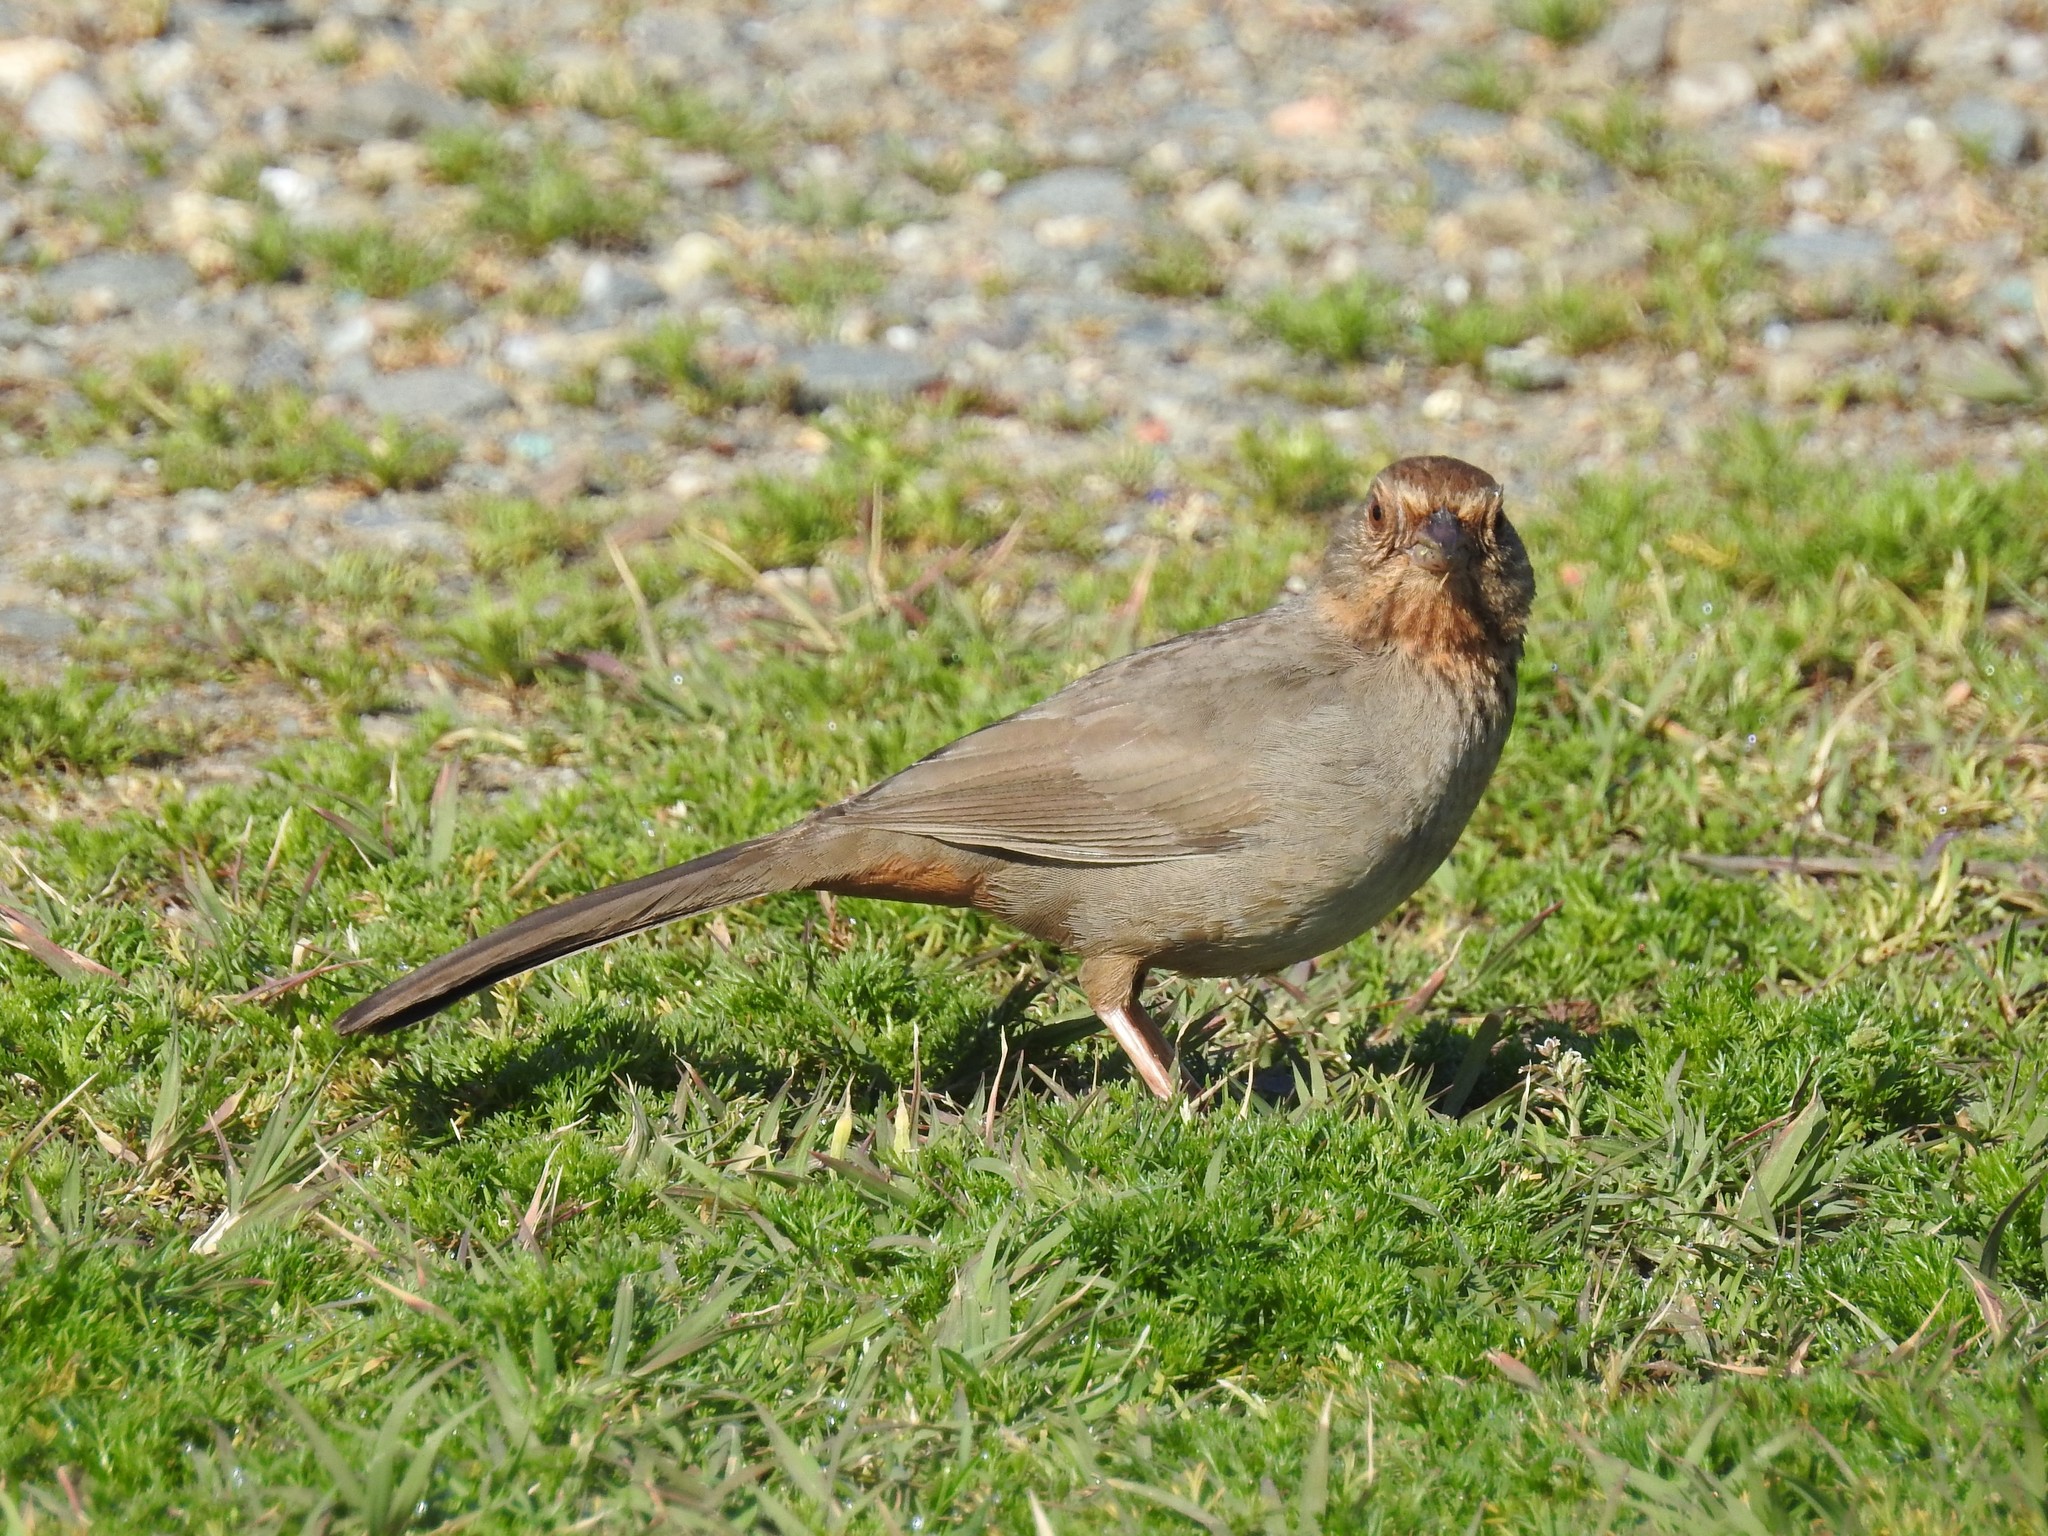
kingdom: Animalia
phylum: Chordata
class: Aves
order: Passeriformes
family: Passerellidae
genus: Melozone
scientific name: Melozone crissalis
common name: California towhee
